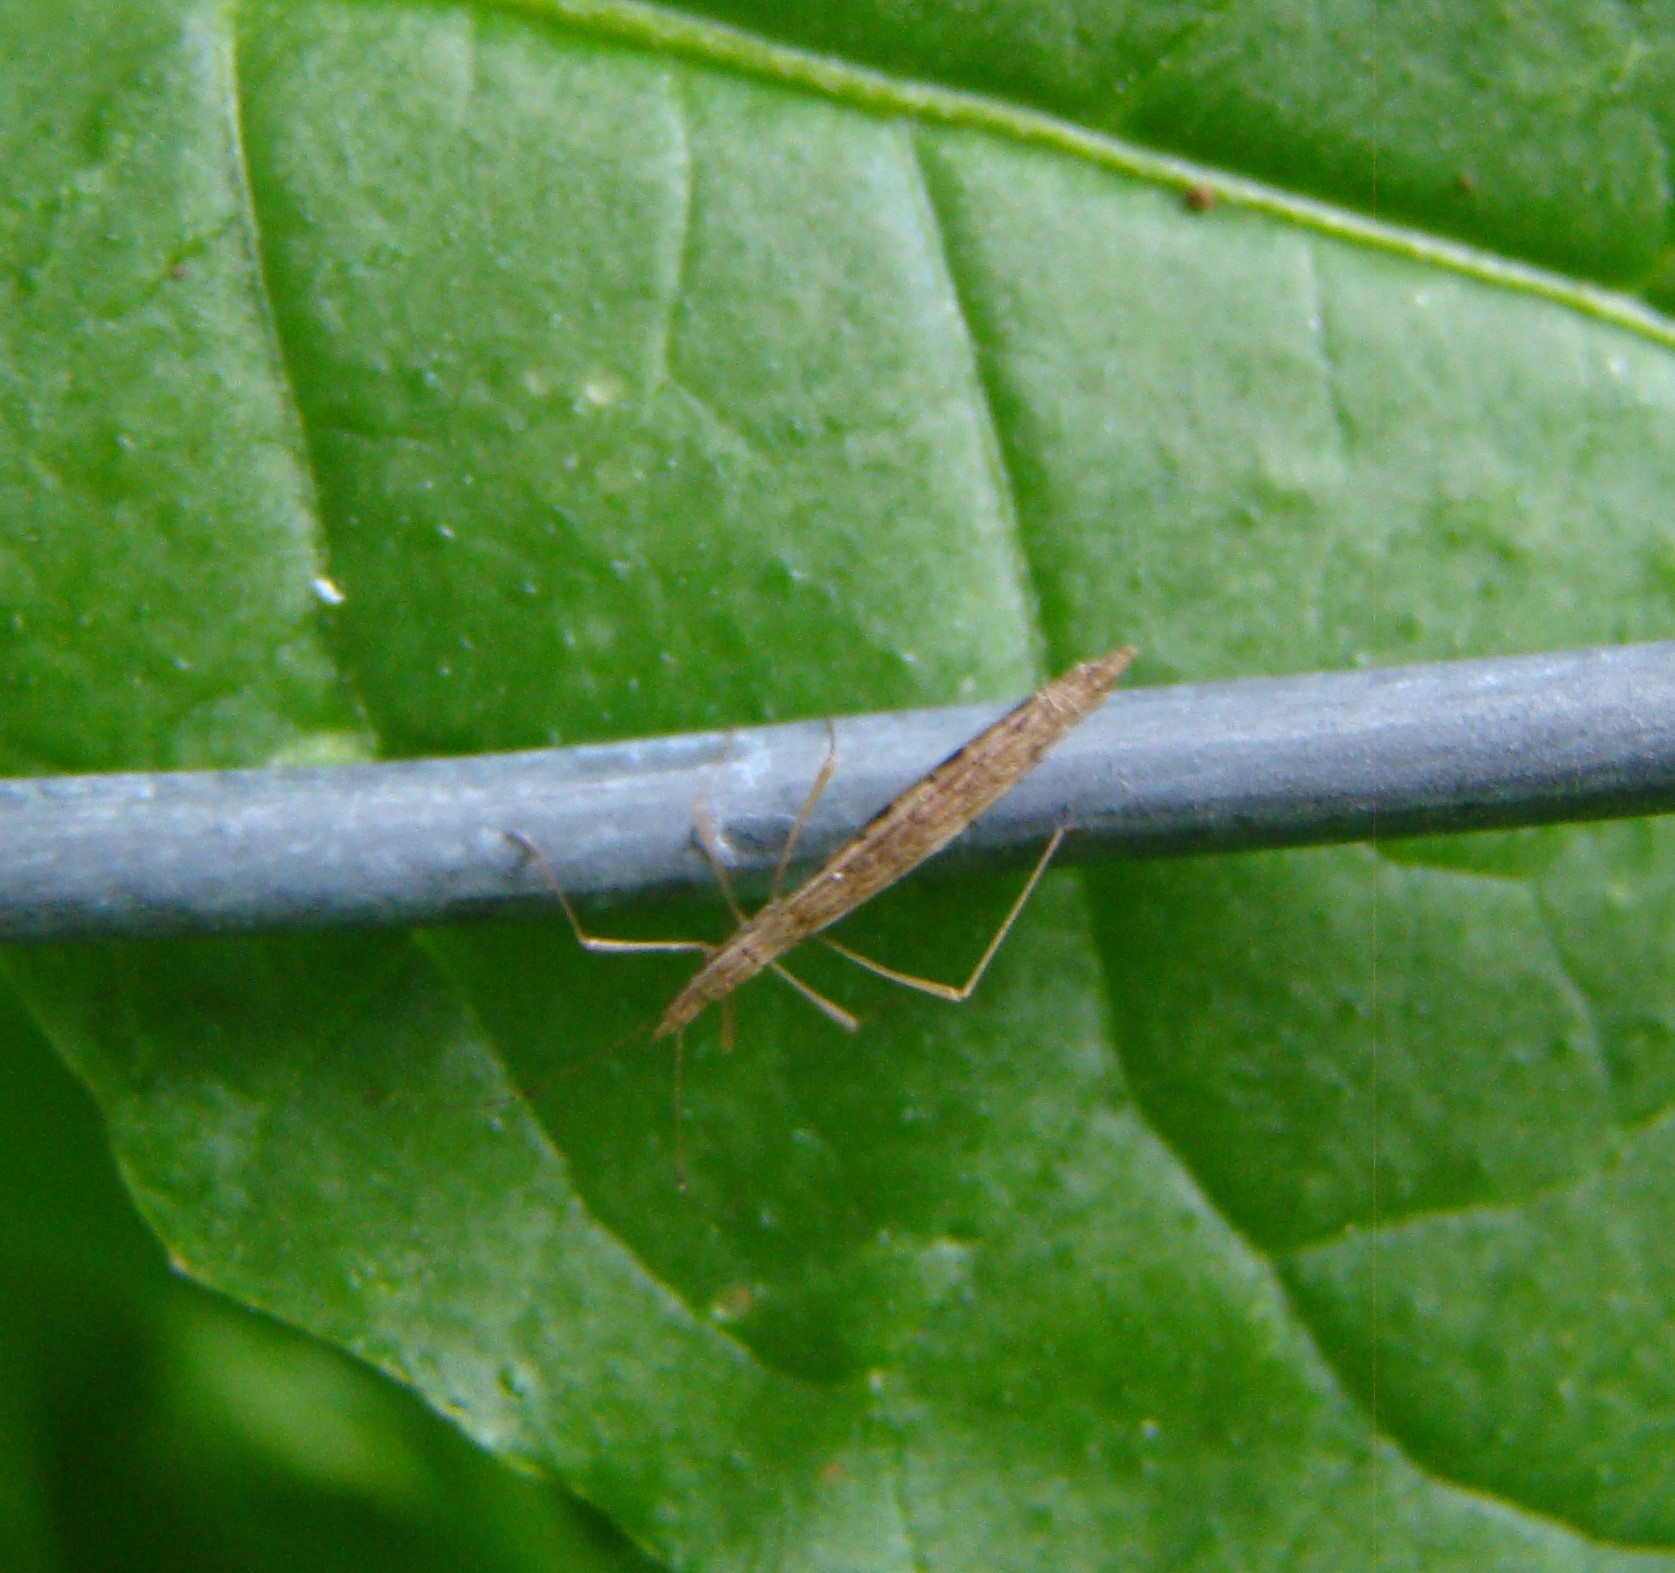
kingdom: Animalia
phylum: Arthropoda
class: Insecta
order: Hemiptera
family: Berytidae
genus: Bezu
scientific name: Bezu wakefieldi
